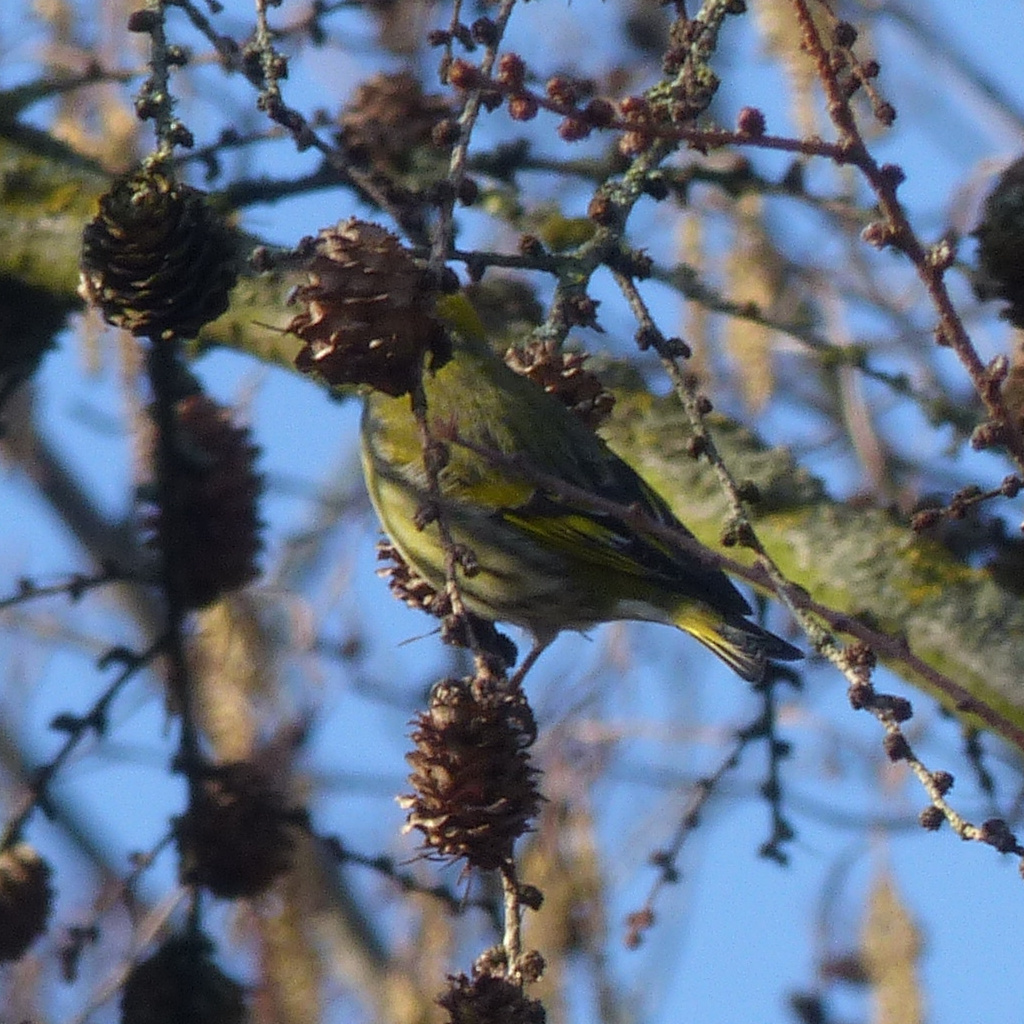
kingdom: Animalia
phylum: Chordata
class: Aves
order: Passeriformes
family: Fringillidae
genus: Spinus
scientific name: Spinus spinus
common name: Eurasian siskin
